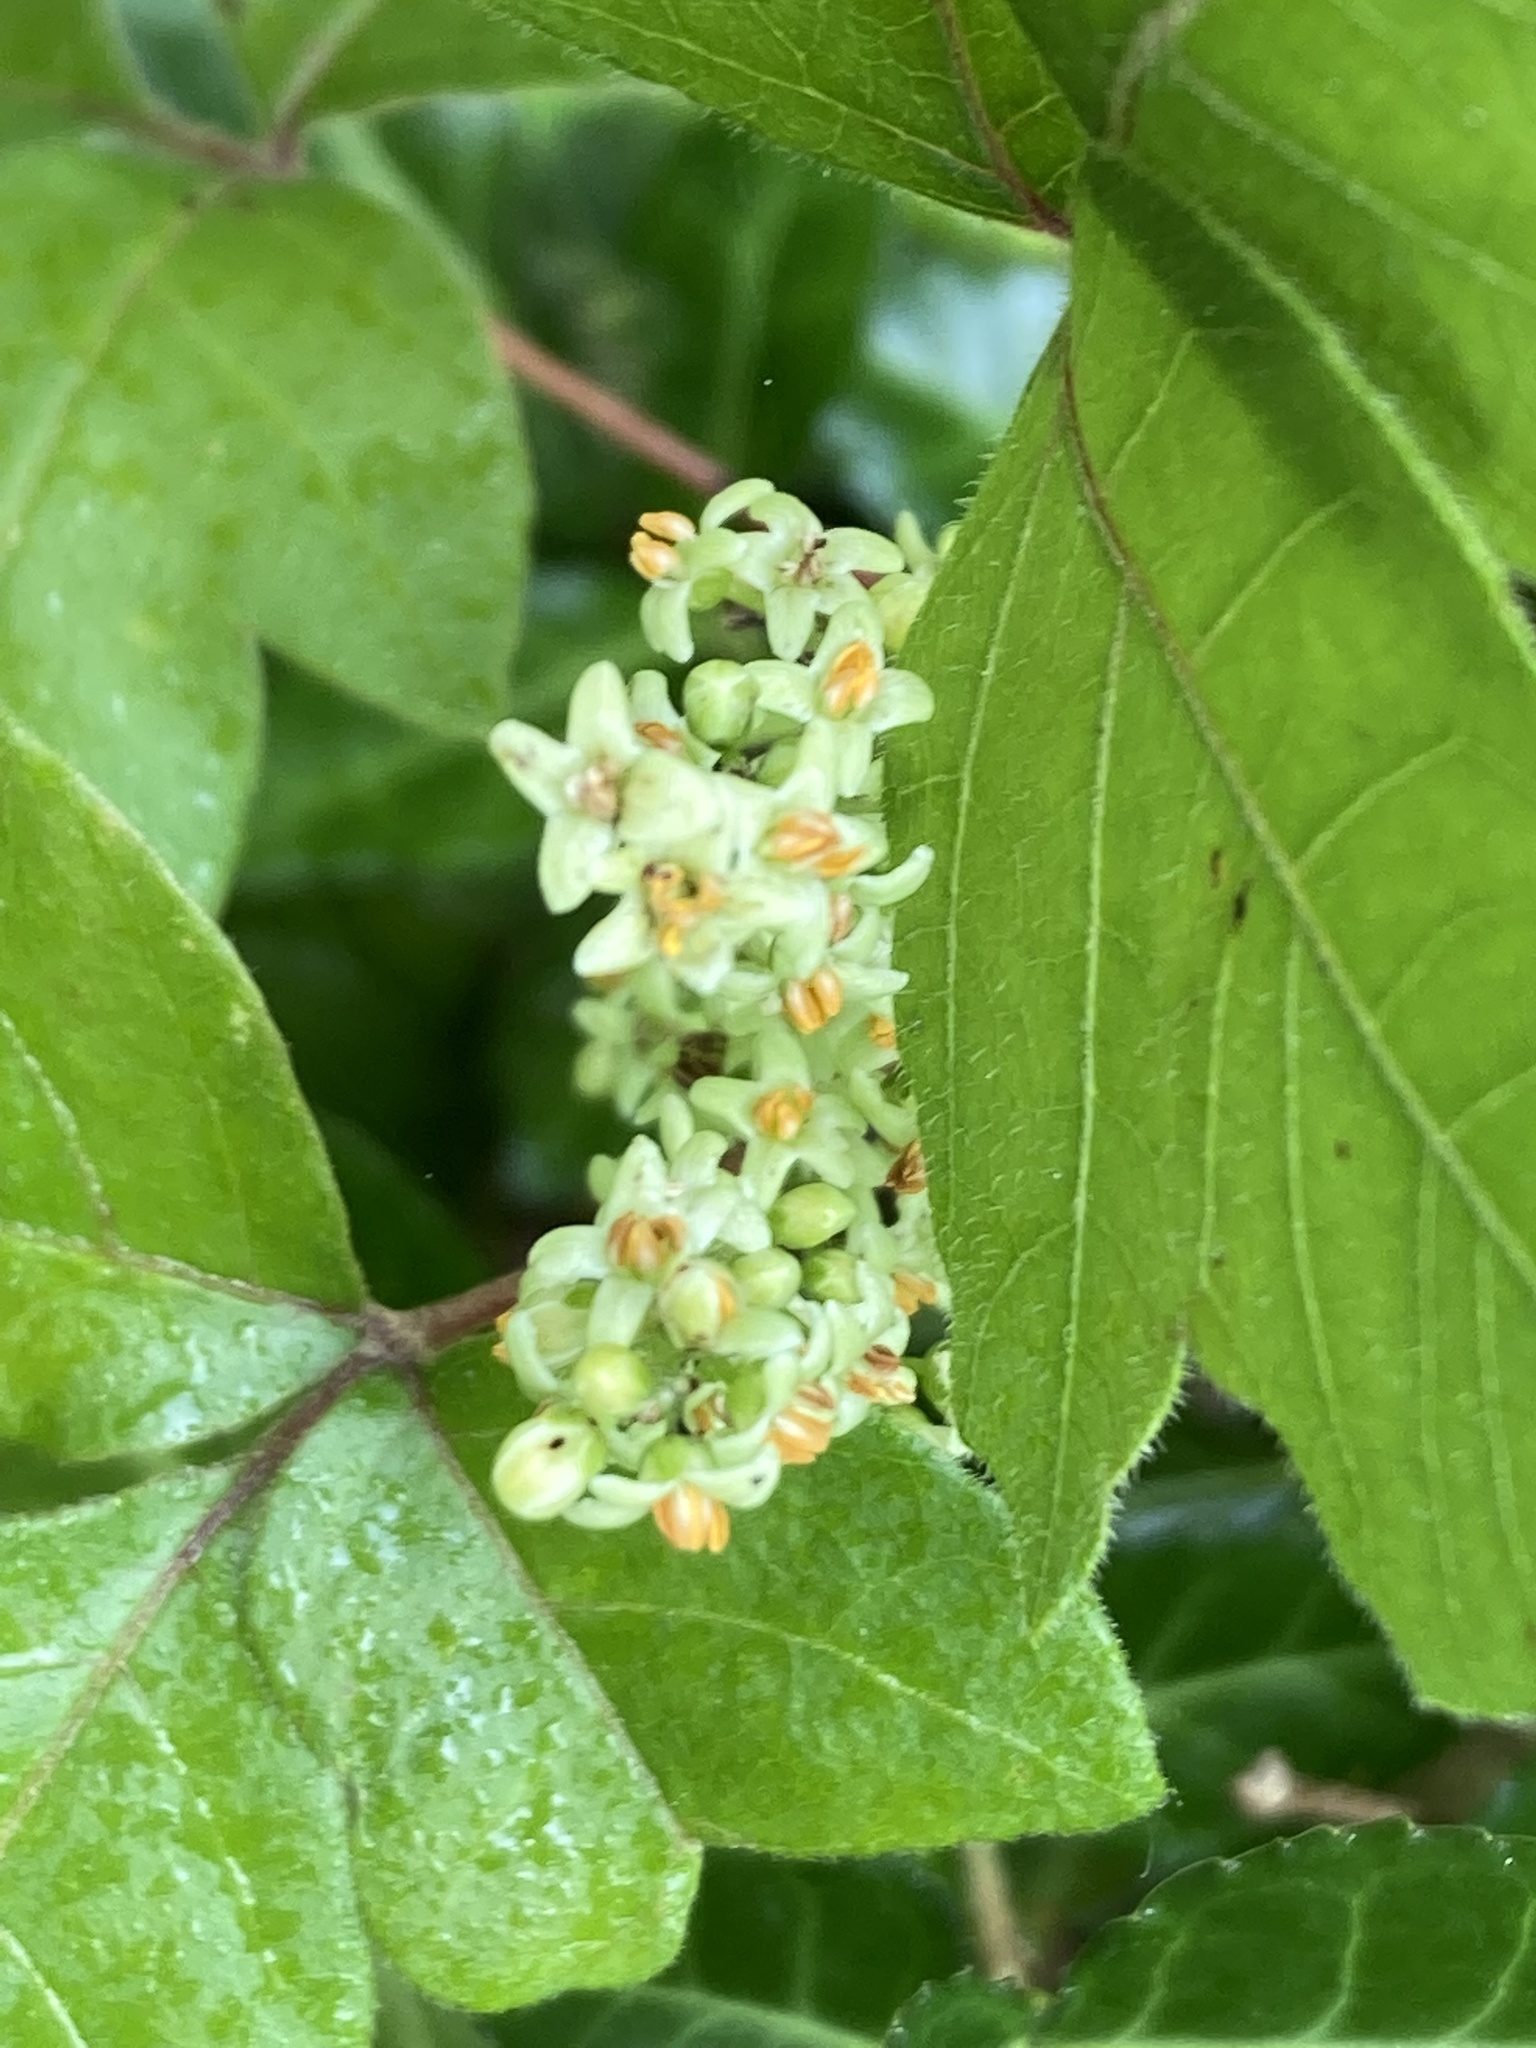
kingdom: Plantae
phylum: Tracheophyta
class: Magnoliopsida
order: Sapindales
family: Anacardiaceae
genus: Toxicodendron
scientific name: Toxicodendron radicans
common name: Poison ivy
